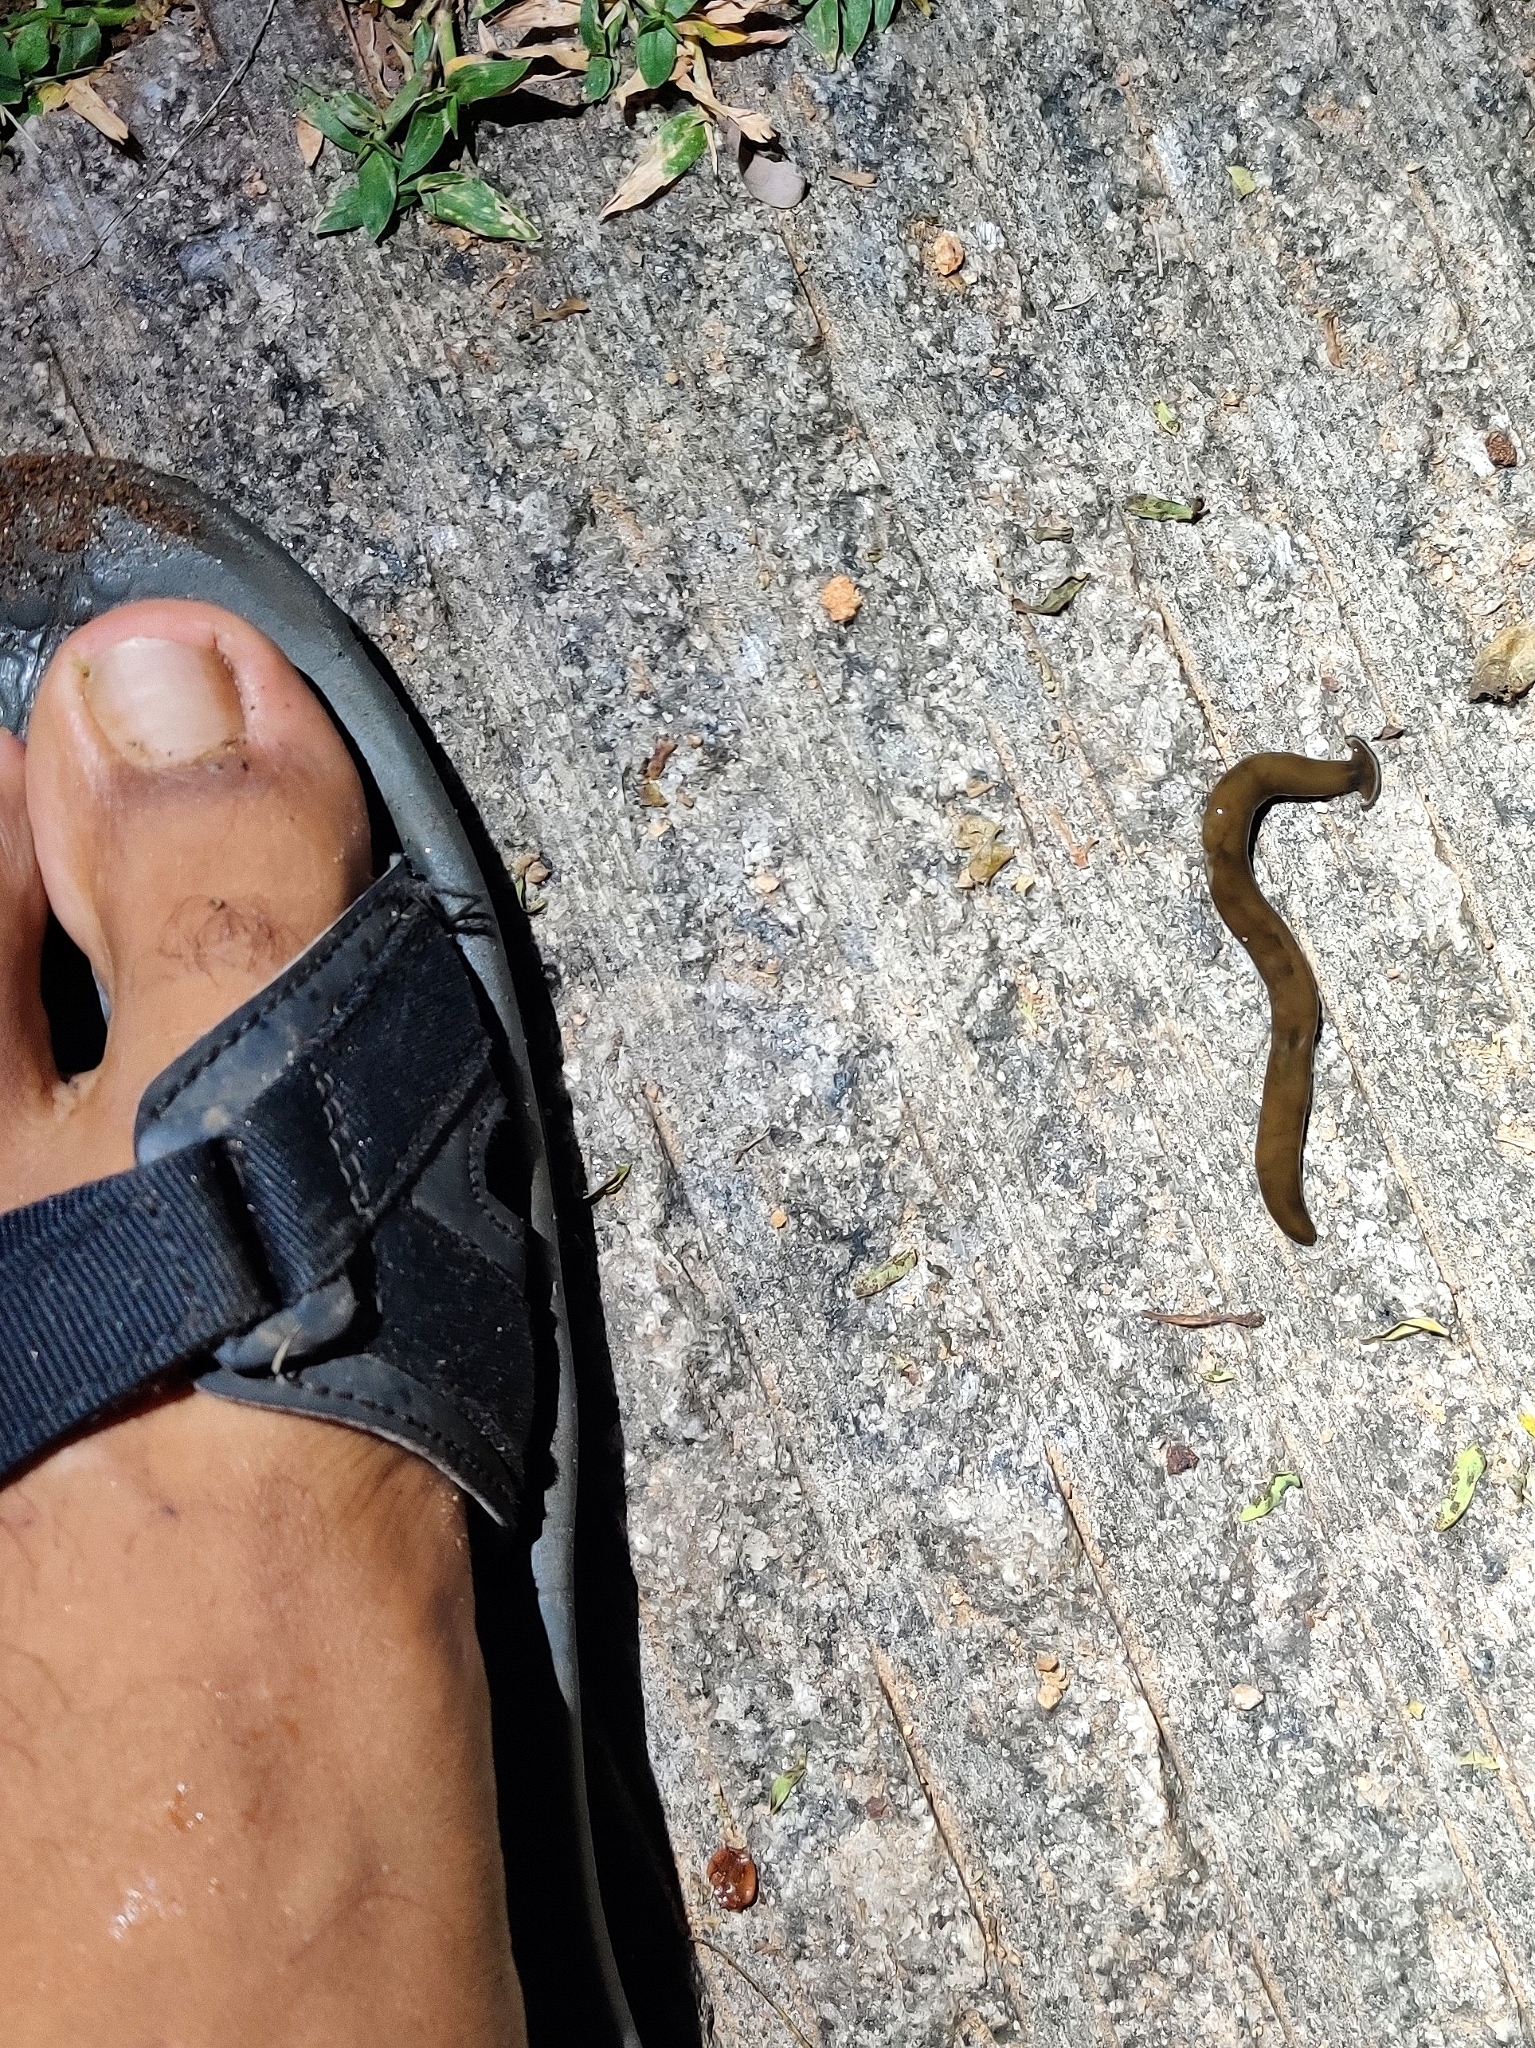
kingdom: Animalia
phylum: Platyhelminthes
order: Tricladida
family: Geoplanidae
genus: Diversibipalium
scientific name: Diversibipalium indicum
